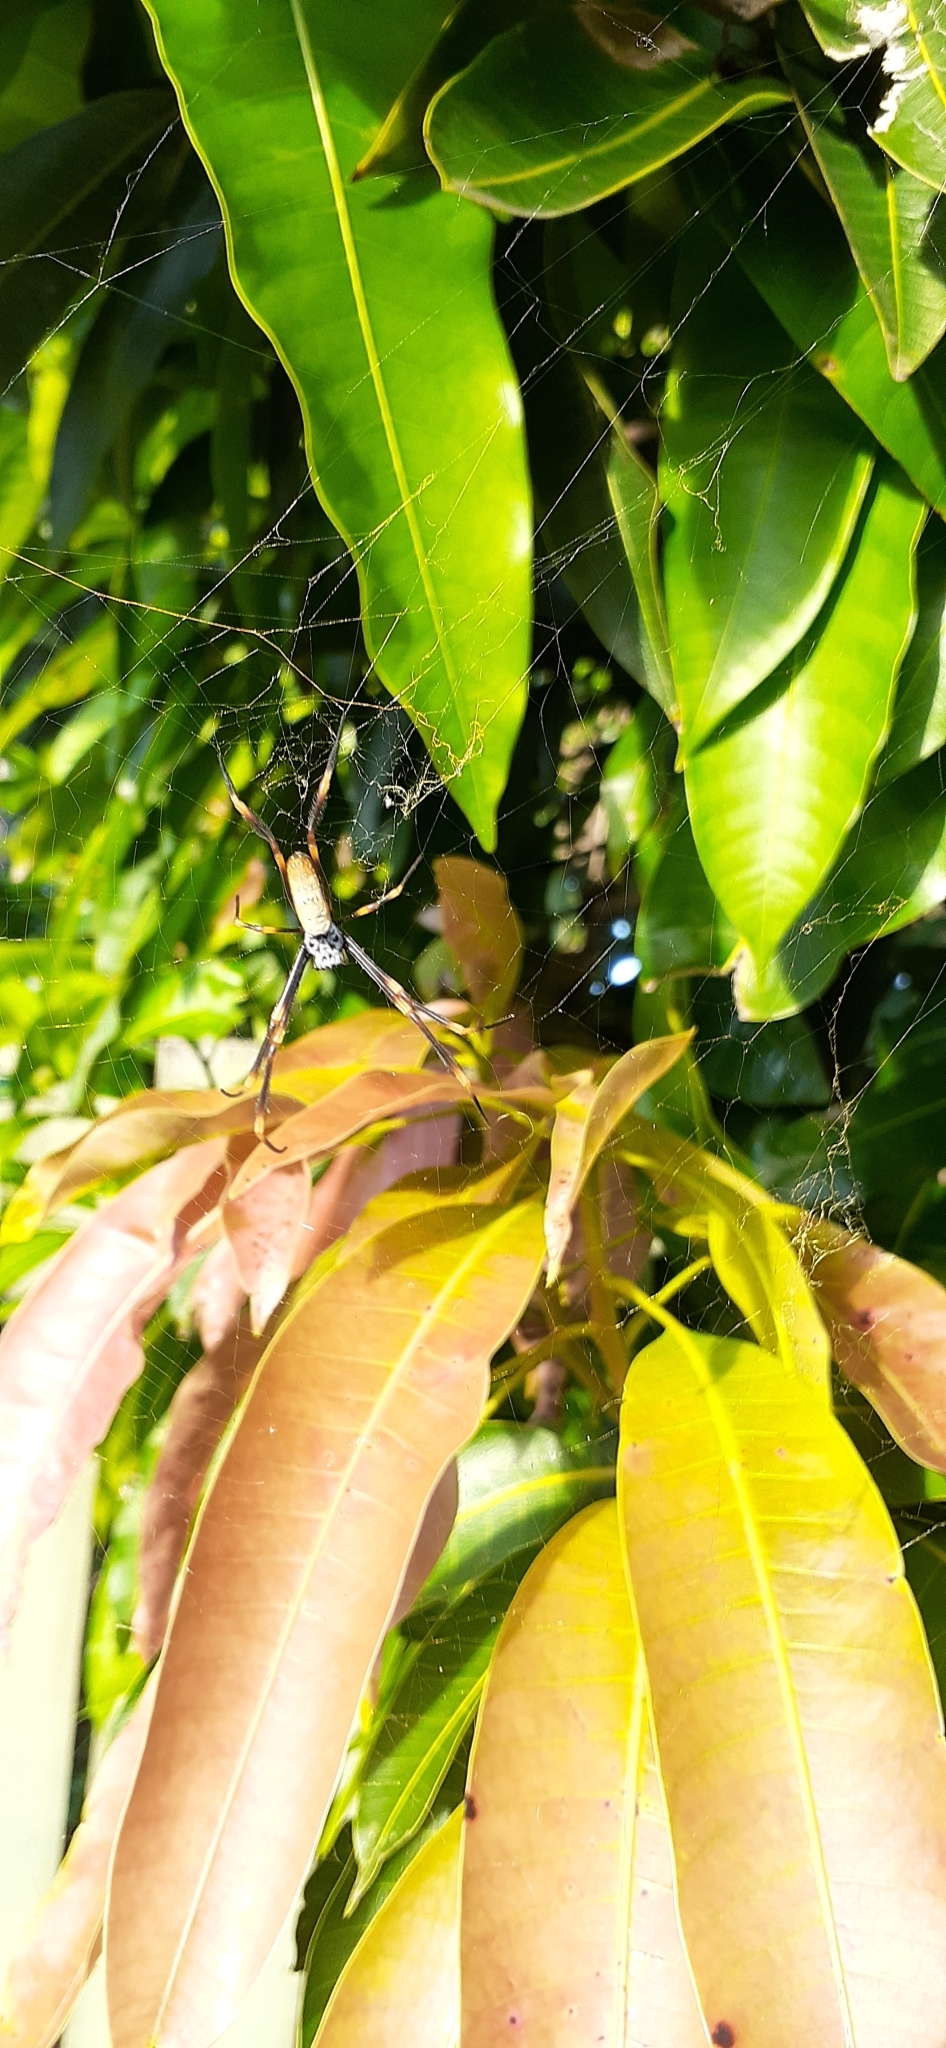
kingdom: Animalia
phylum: Arthropoda
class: Arachnida
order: Araneae
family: Araneidae
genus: Trichonephila
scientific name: Trichonephila plumipes
